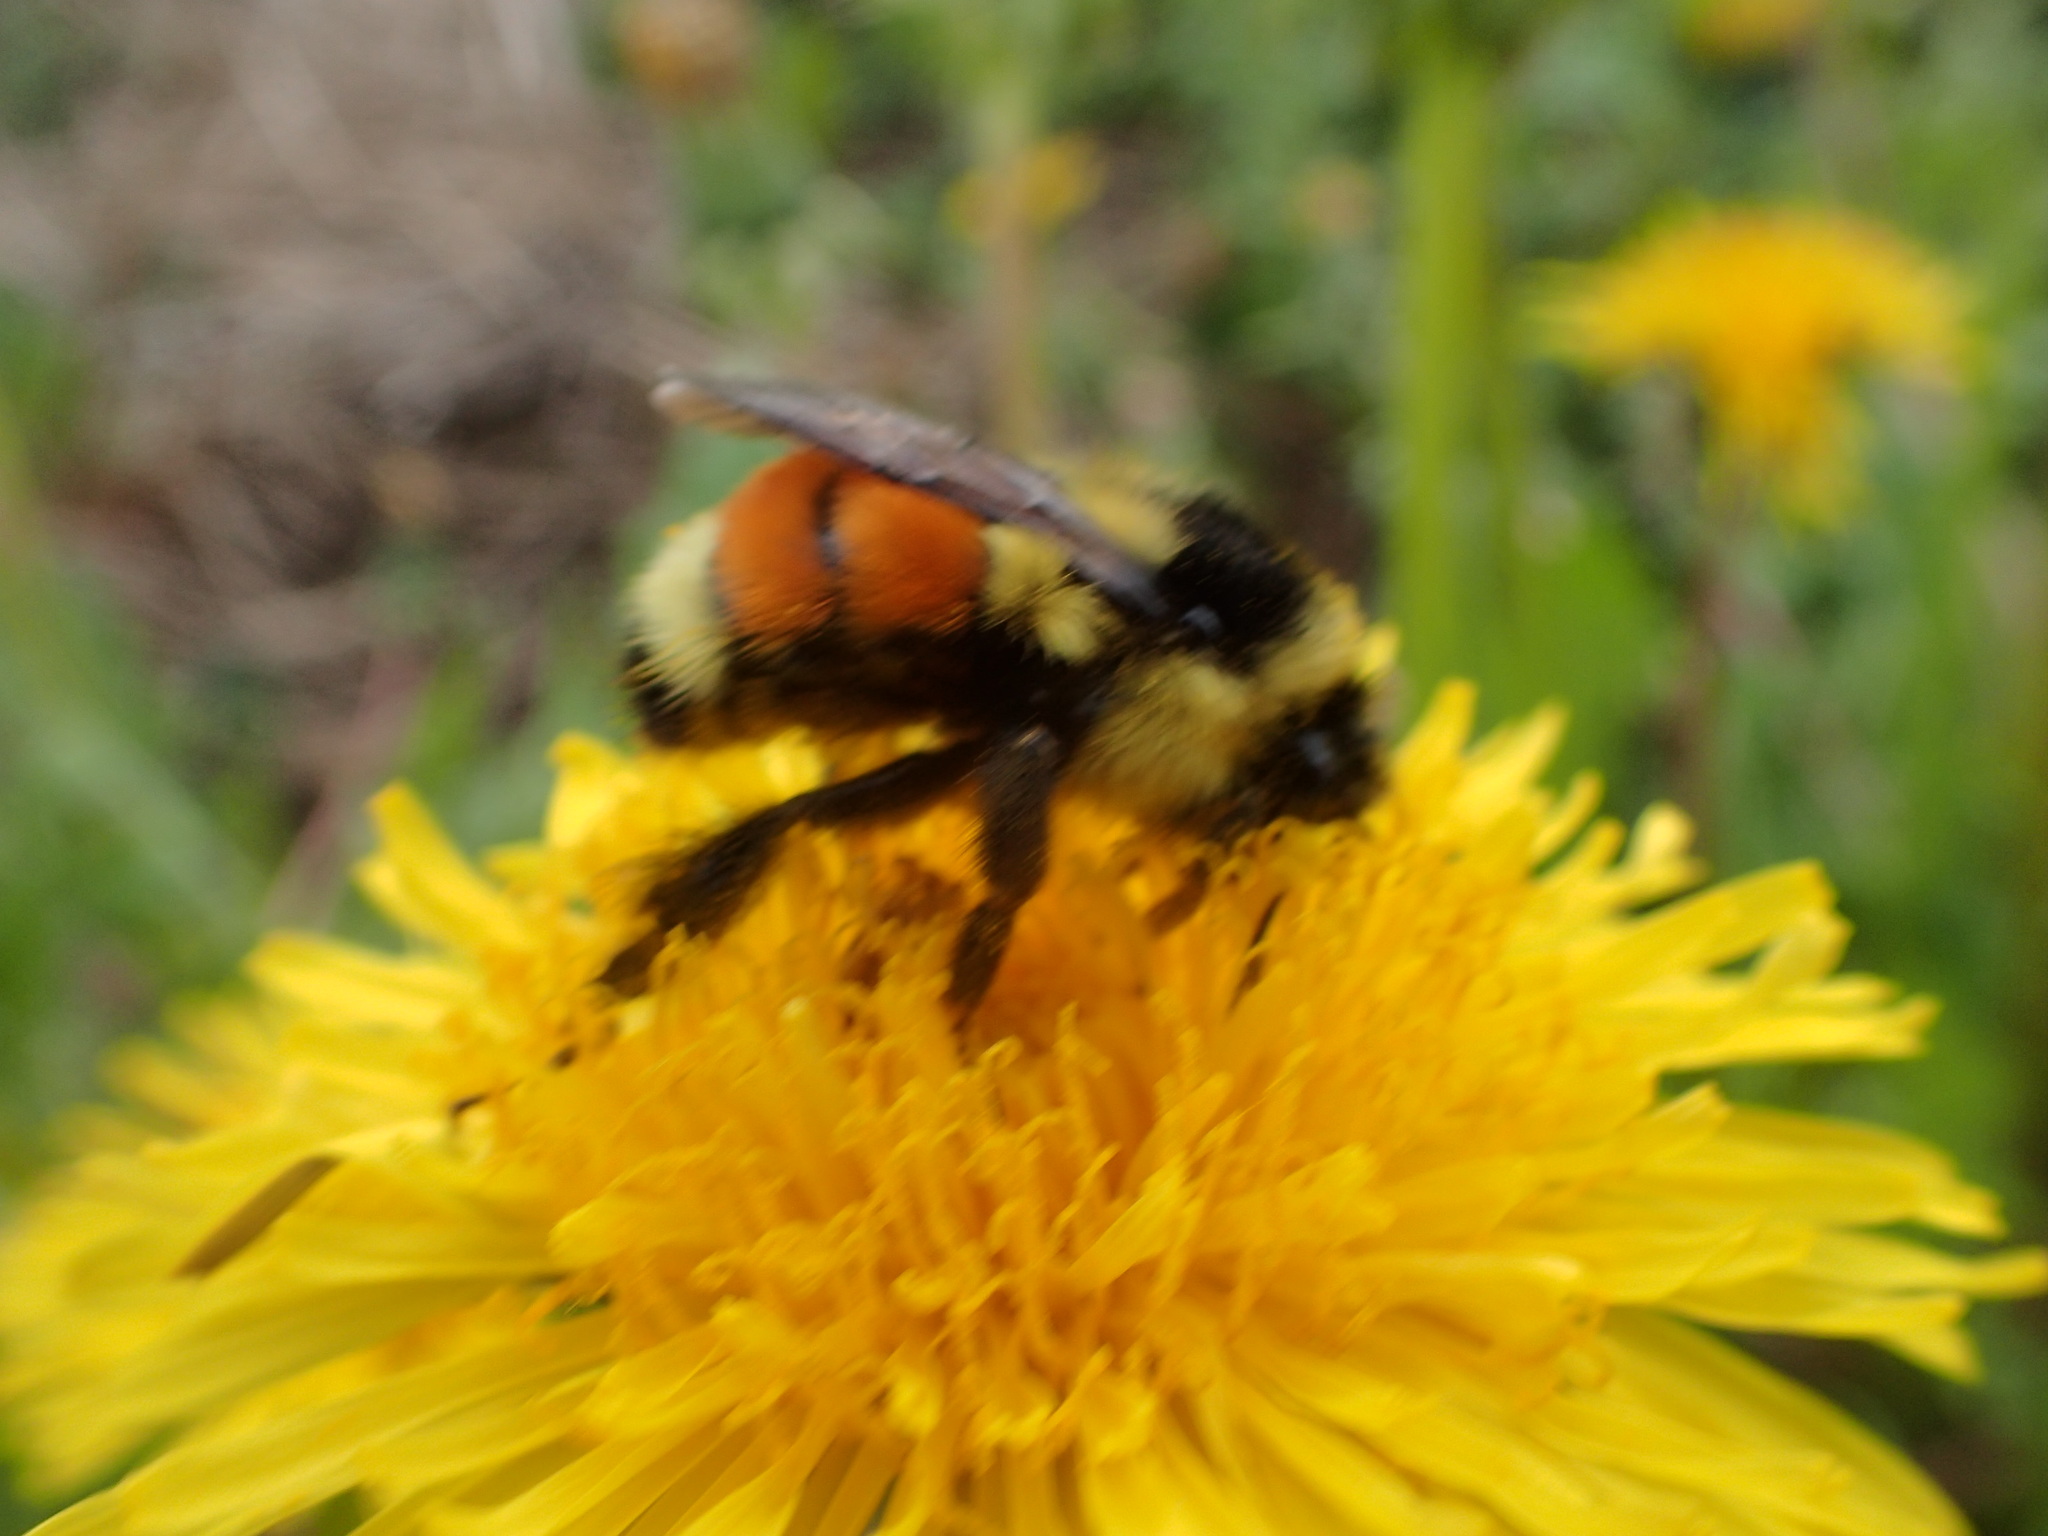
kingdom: Animalia
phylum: Arthropoda
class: Insecta
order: Hymenoptera
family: Apidae
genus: Bombus
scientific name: Bombus ternarius
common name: Tri-colored bumble bee
